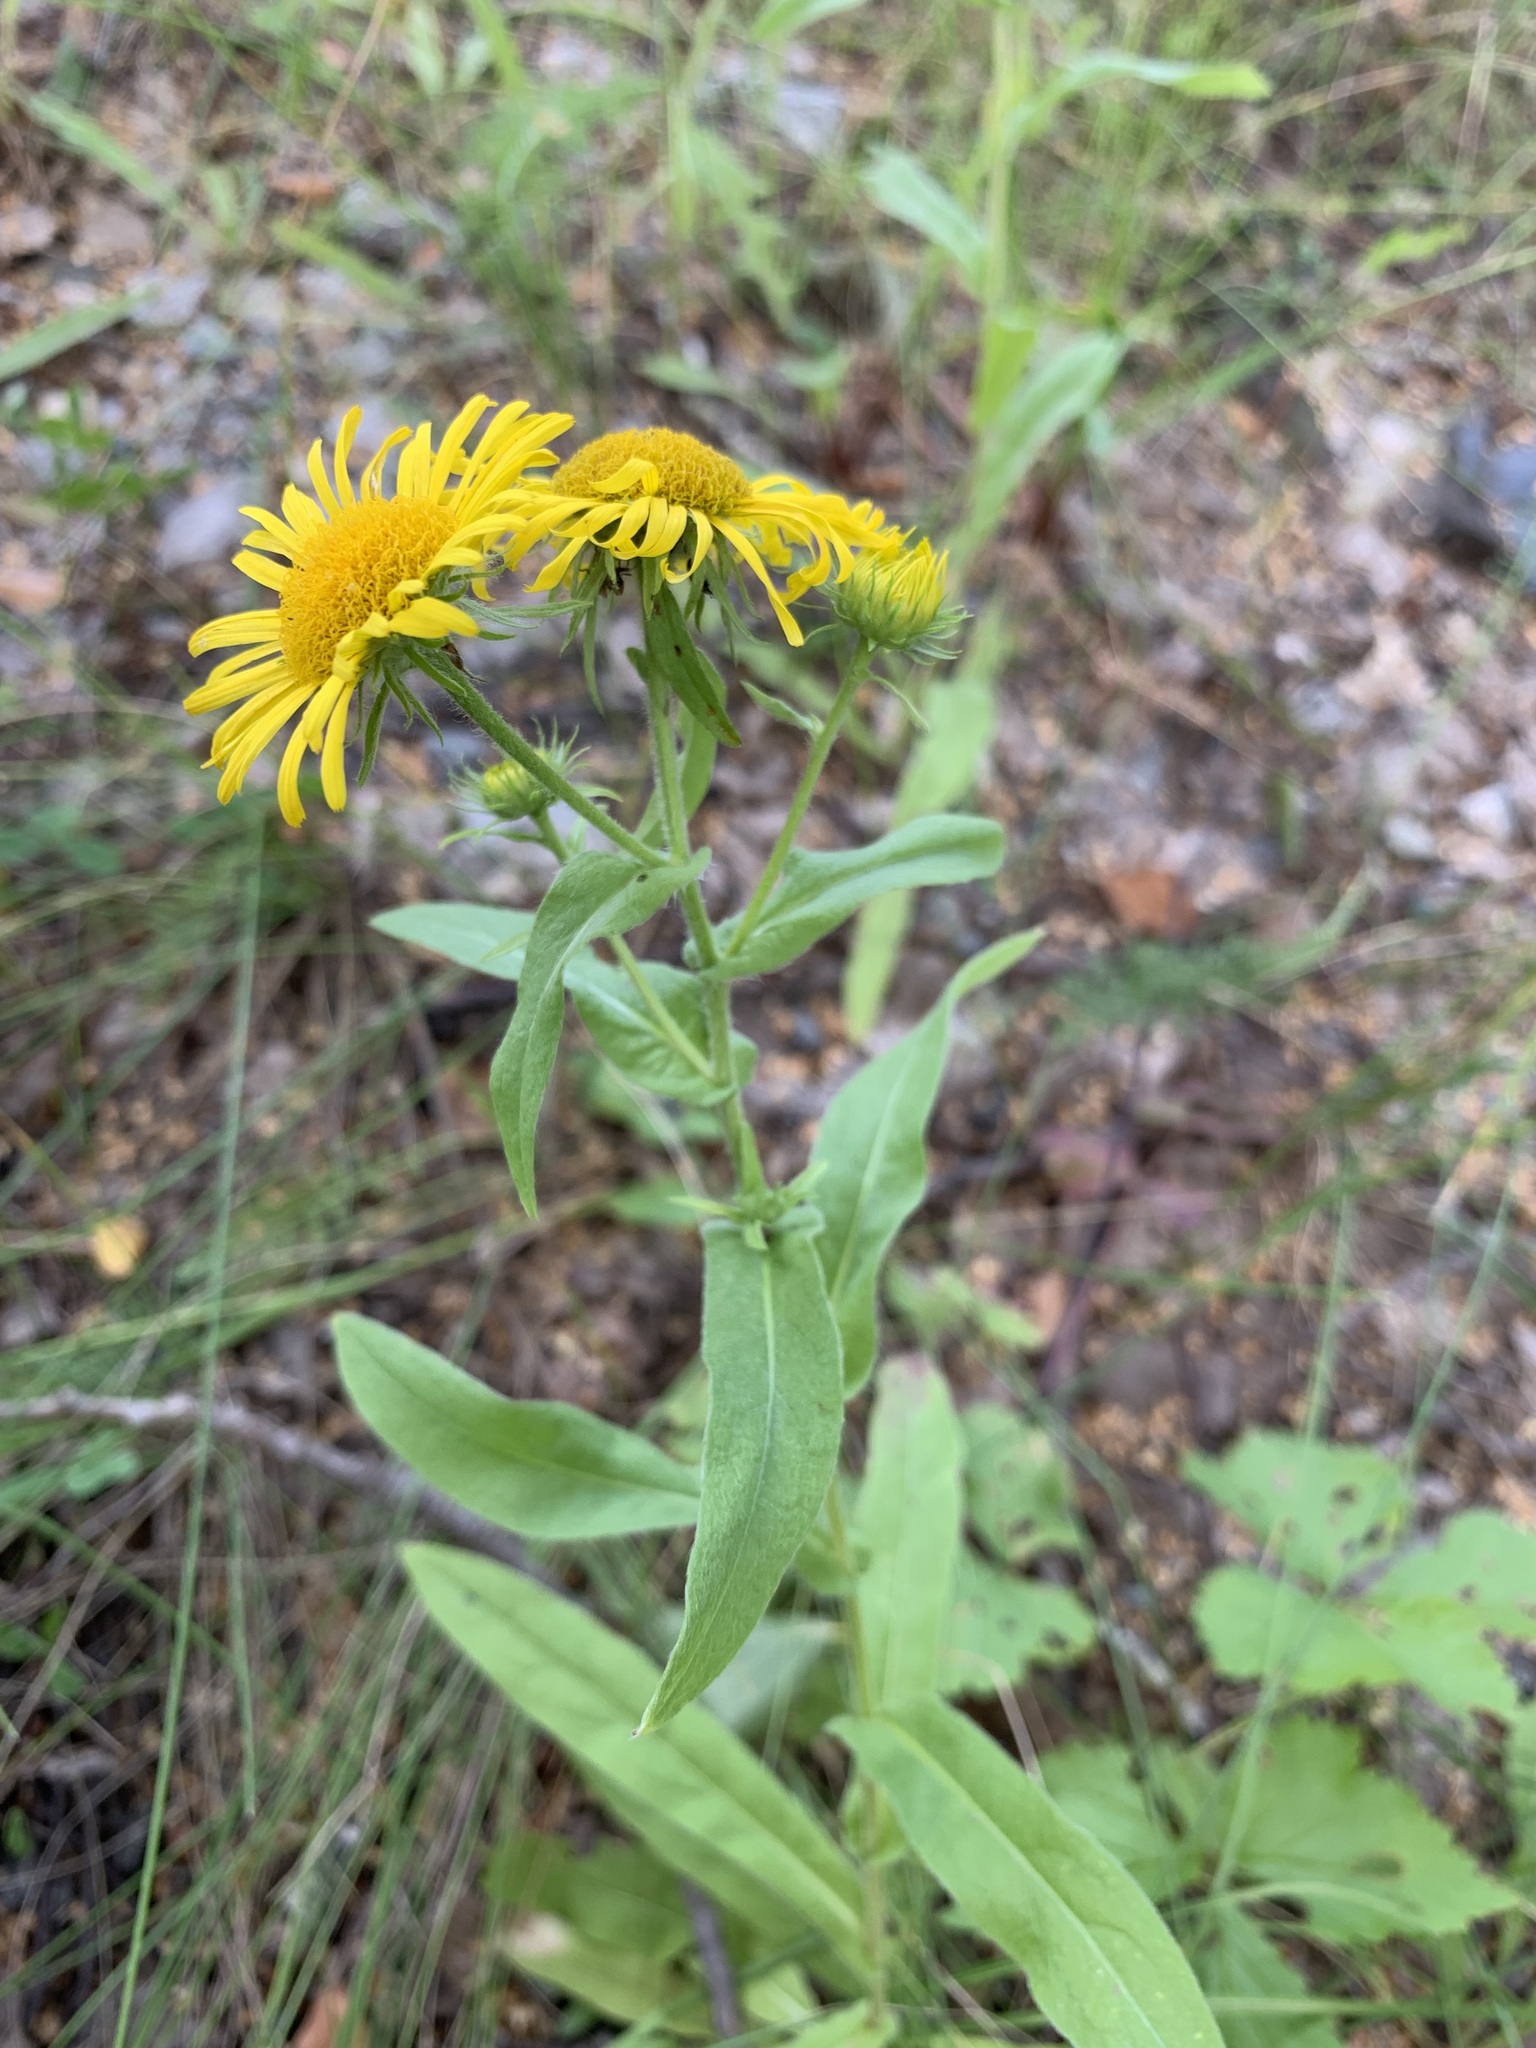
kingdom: Plantae
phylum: Tracheophyta
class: Magnoliopsida
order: Asterales
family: Asteraceae
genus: Pentanema
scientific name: Pentanema britannicum
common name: British elecampane
